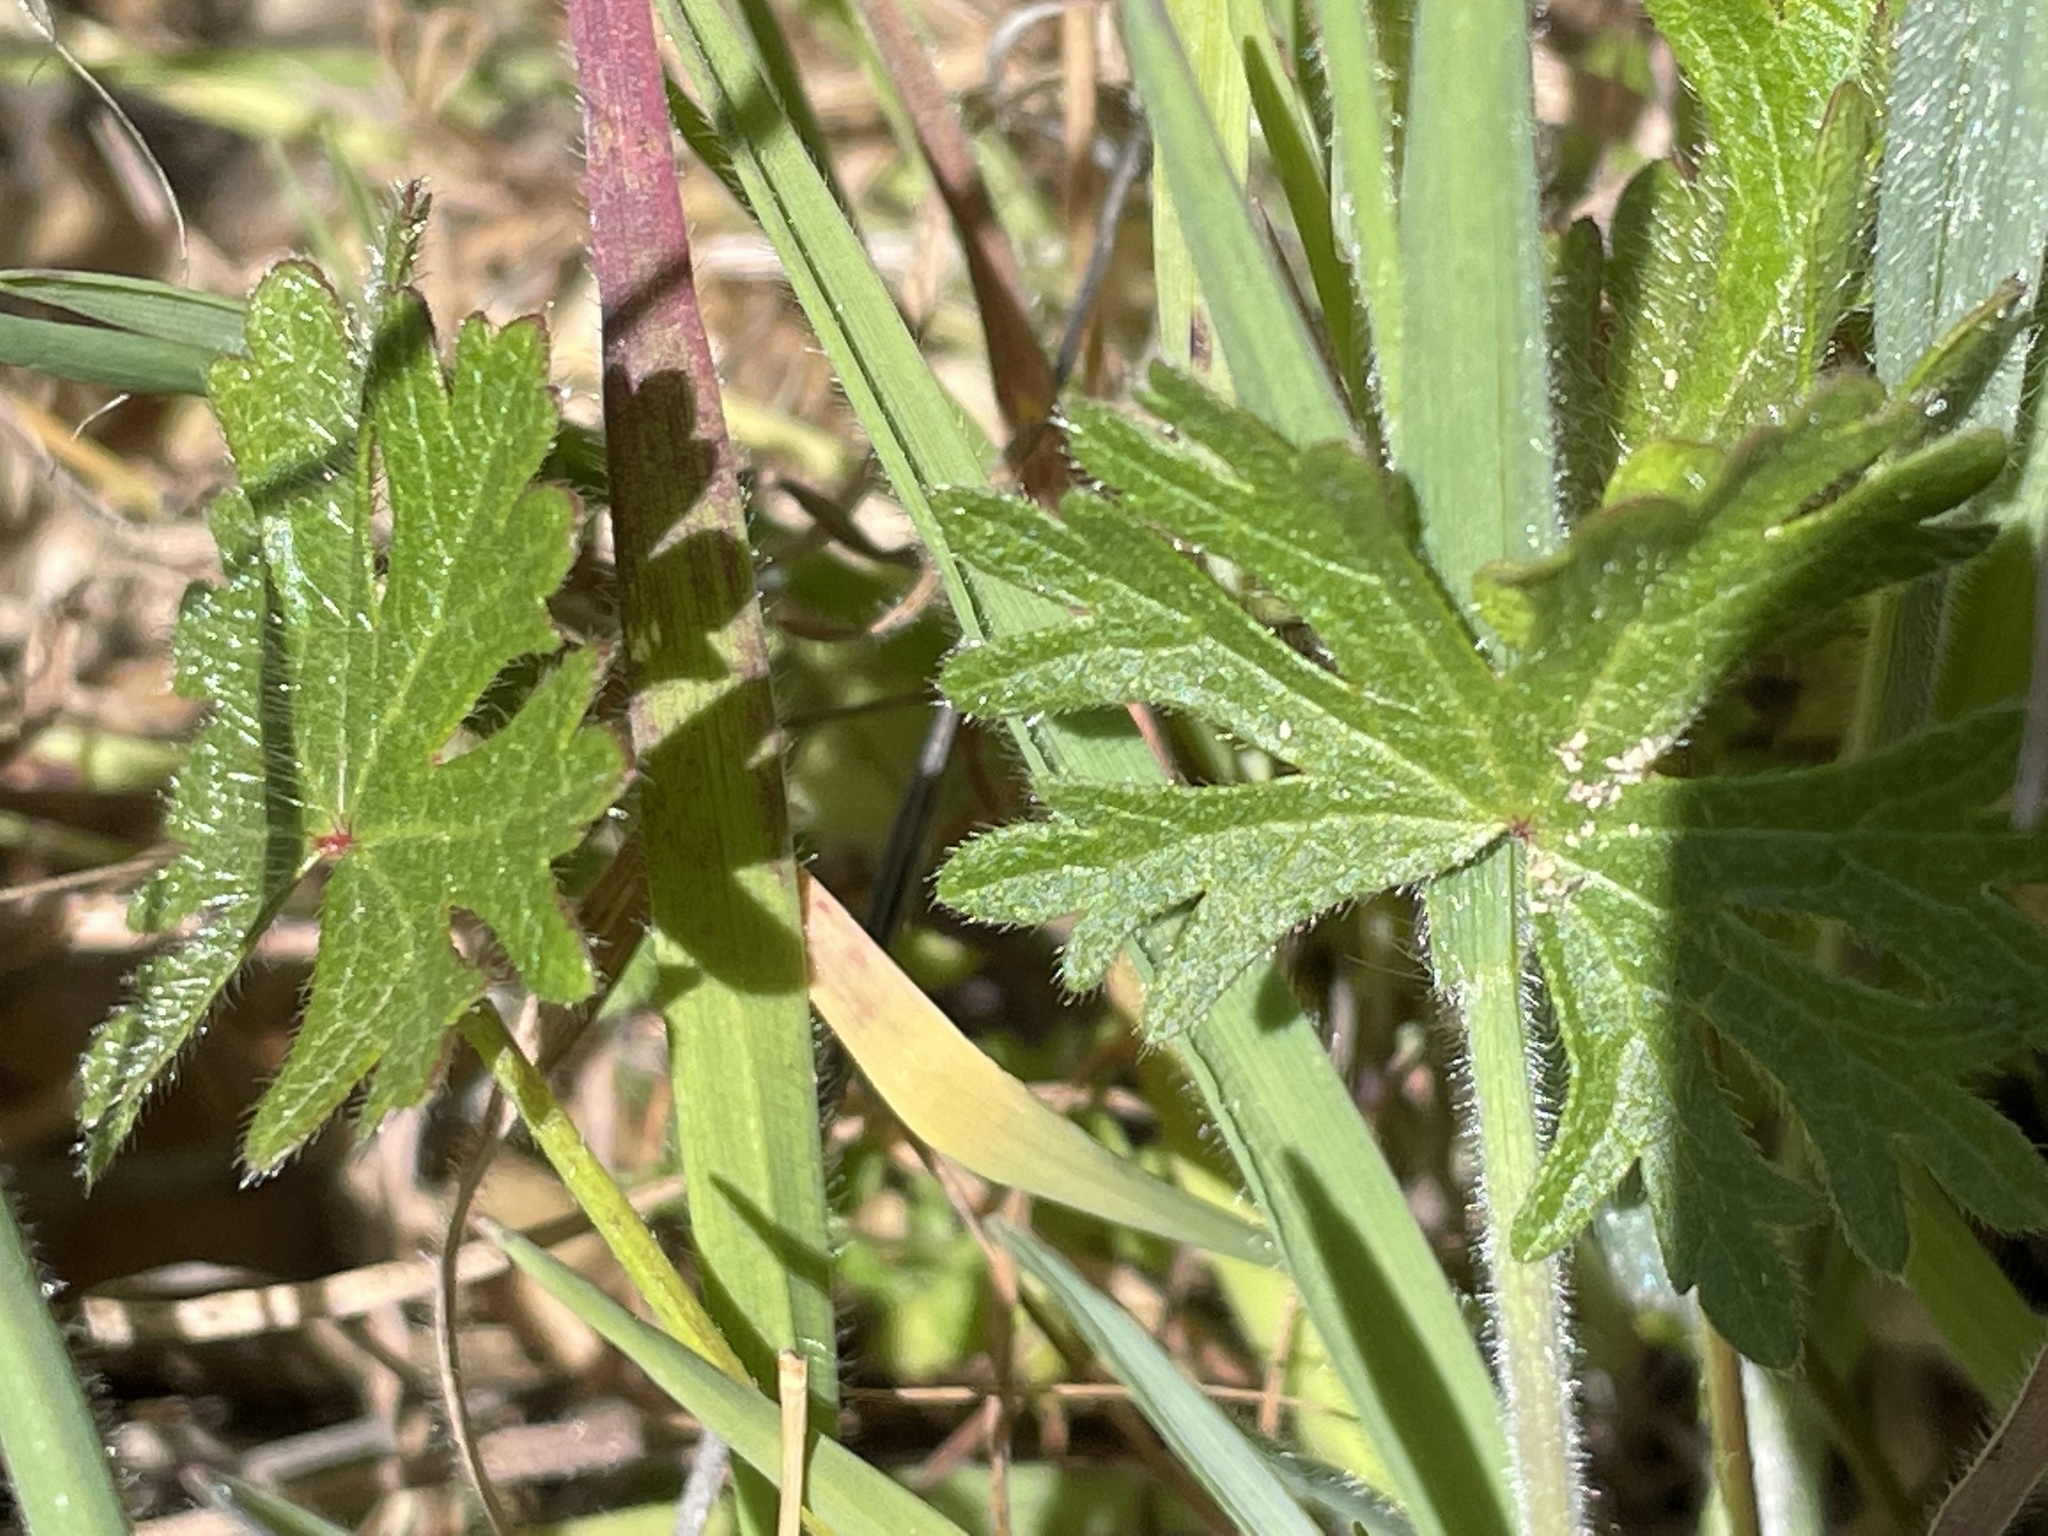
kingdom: Plantae
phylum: Tracheophyta
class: Magnoliopsida
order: Malvales
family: Malvaceae
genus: Sidalcea
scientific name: Sidalcea malviflora
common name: Greek mallow
